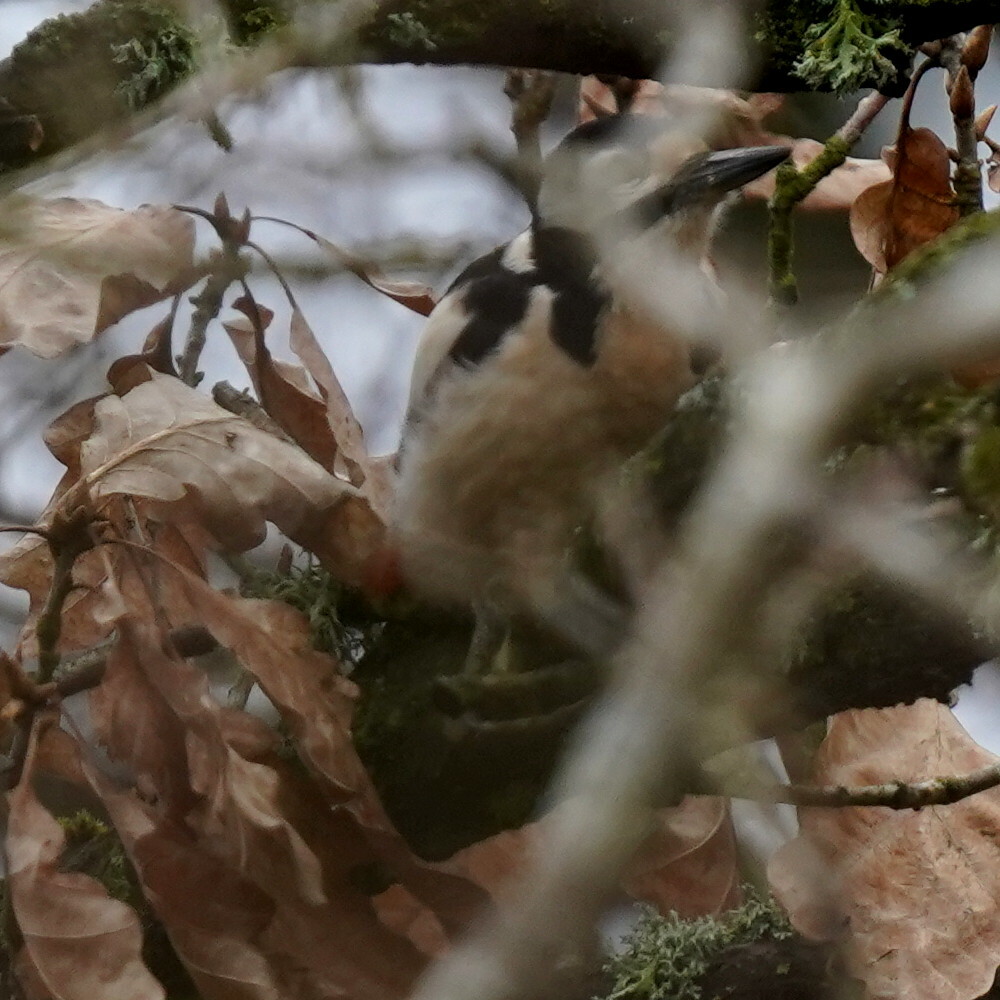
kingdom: Animalia
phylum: Chordata
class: Aves
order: Piciformes
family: Picidae
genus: Dendrocopos
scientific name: Dendrocopos major
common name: Great spotted woodpecker
